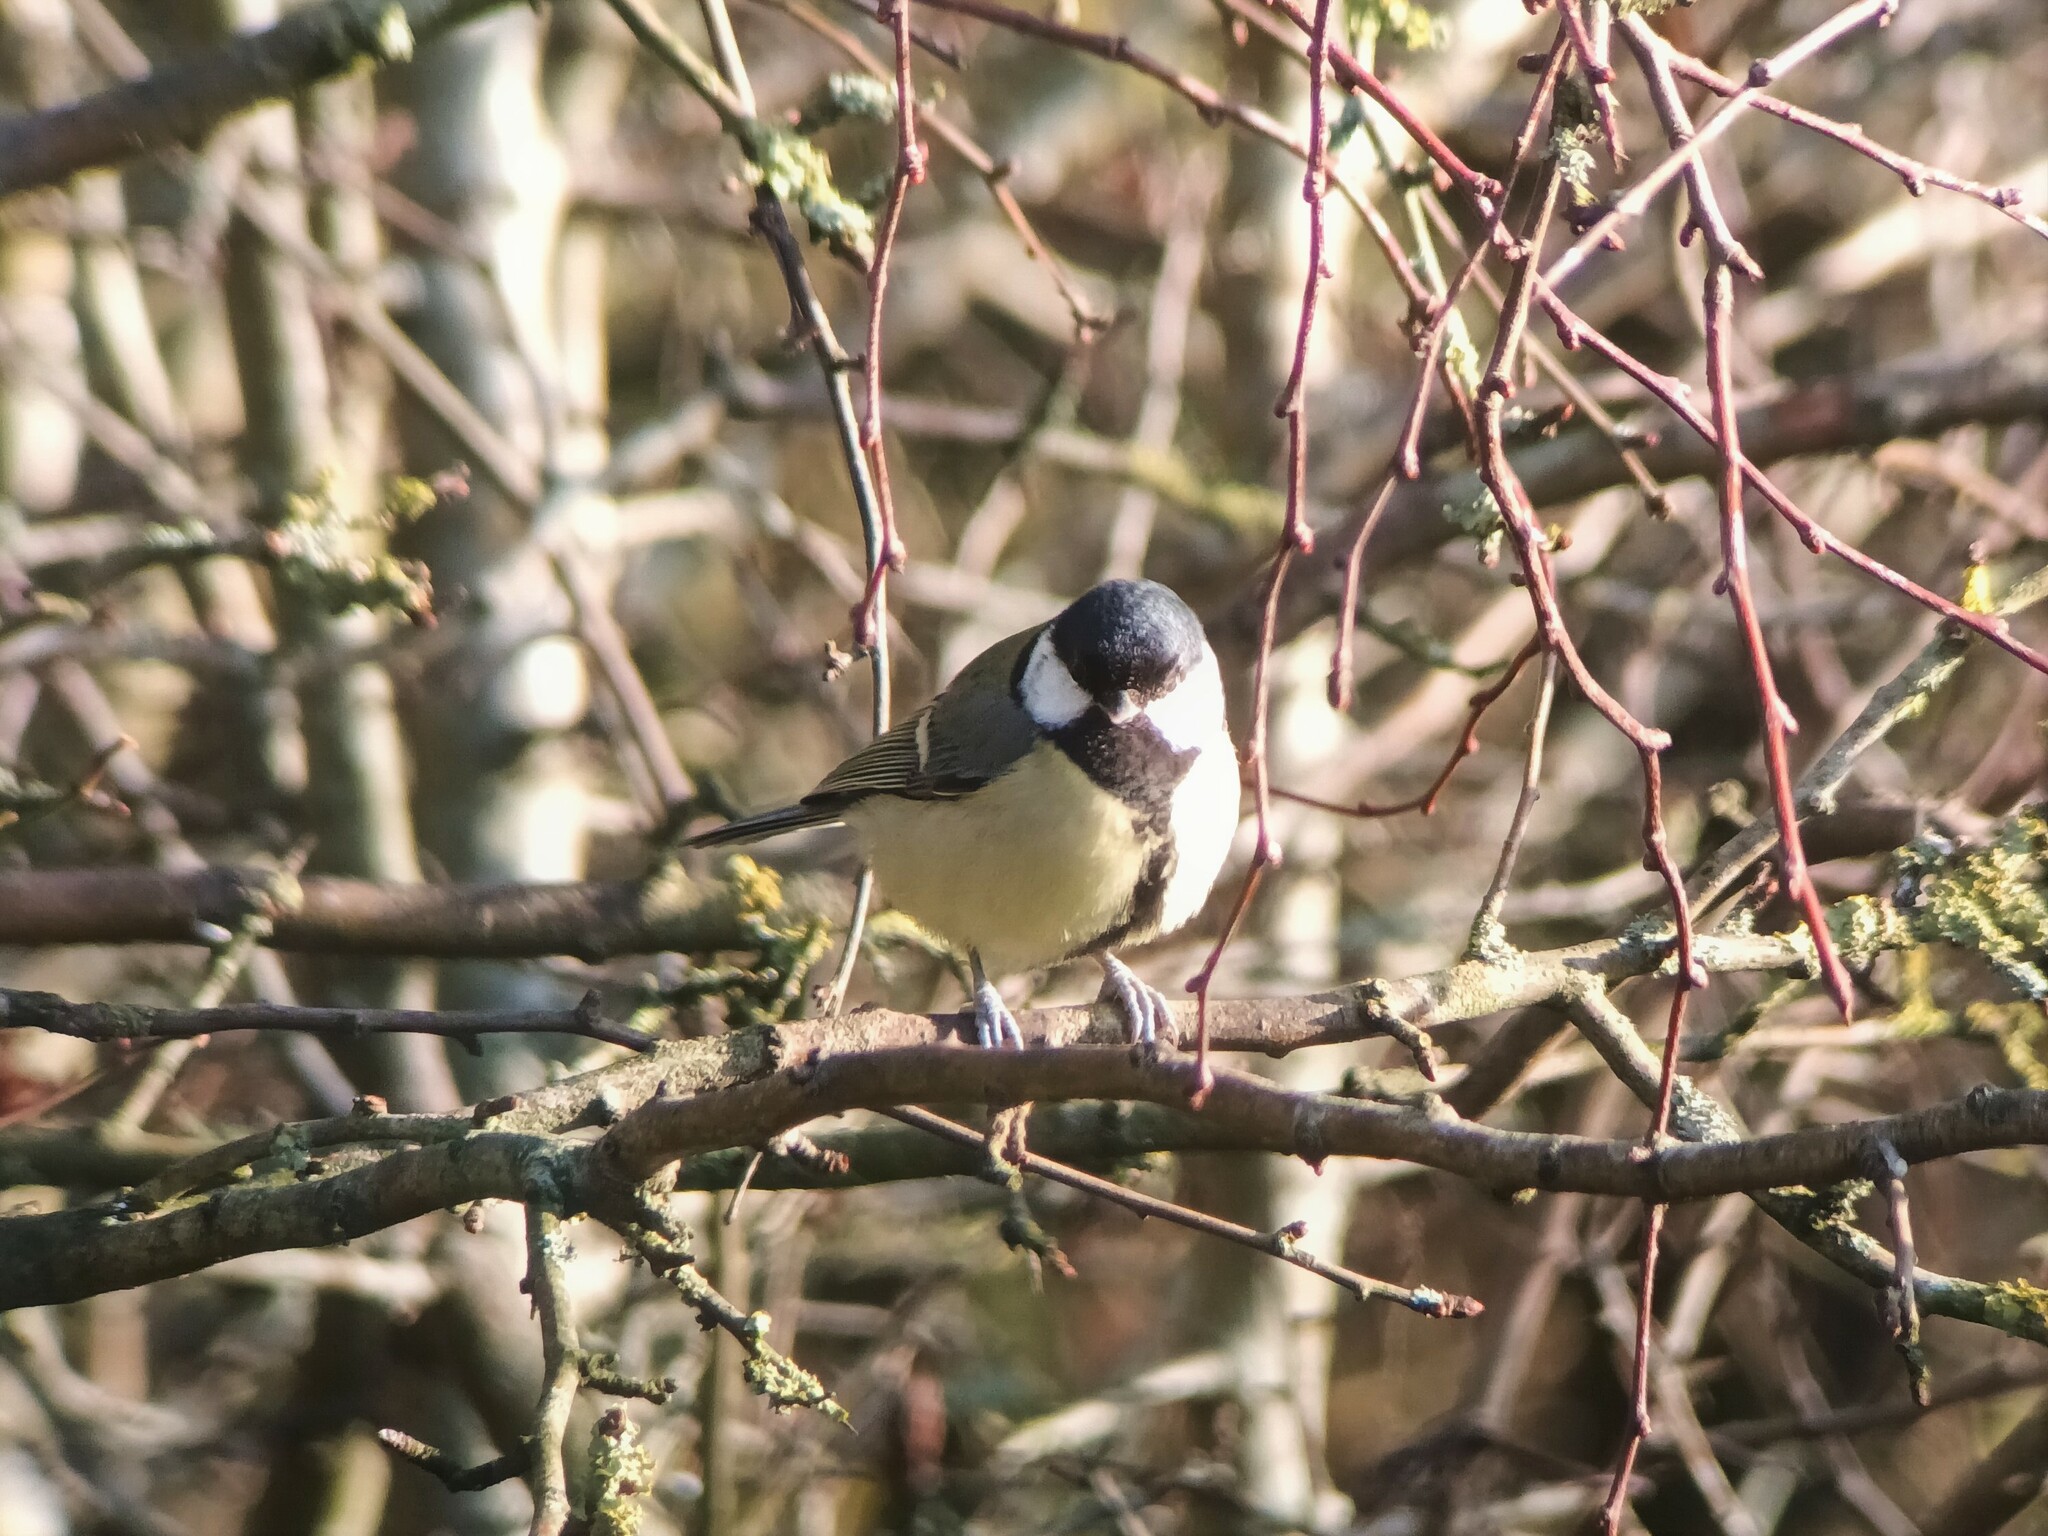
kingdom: Animalia
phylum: Chordata
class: Aves
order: Passeriformes
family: Paridae
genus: Parus
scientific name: Parus major
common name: Great tit
